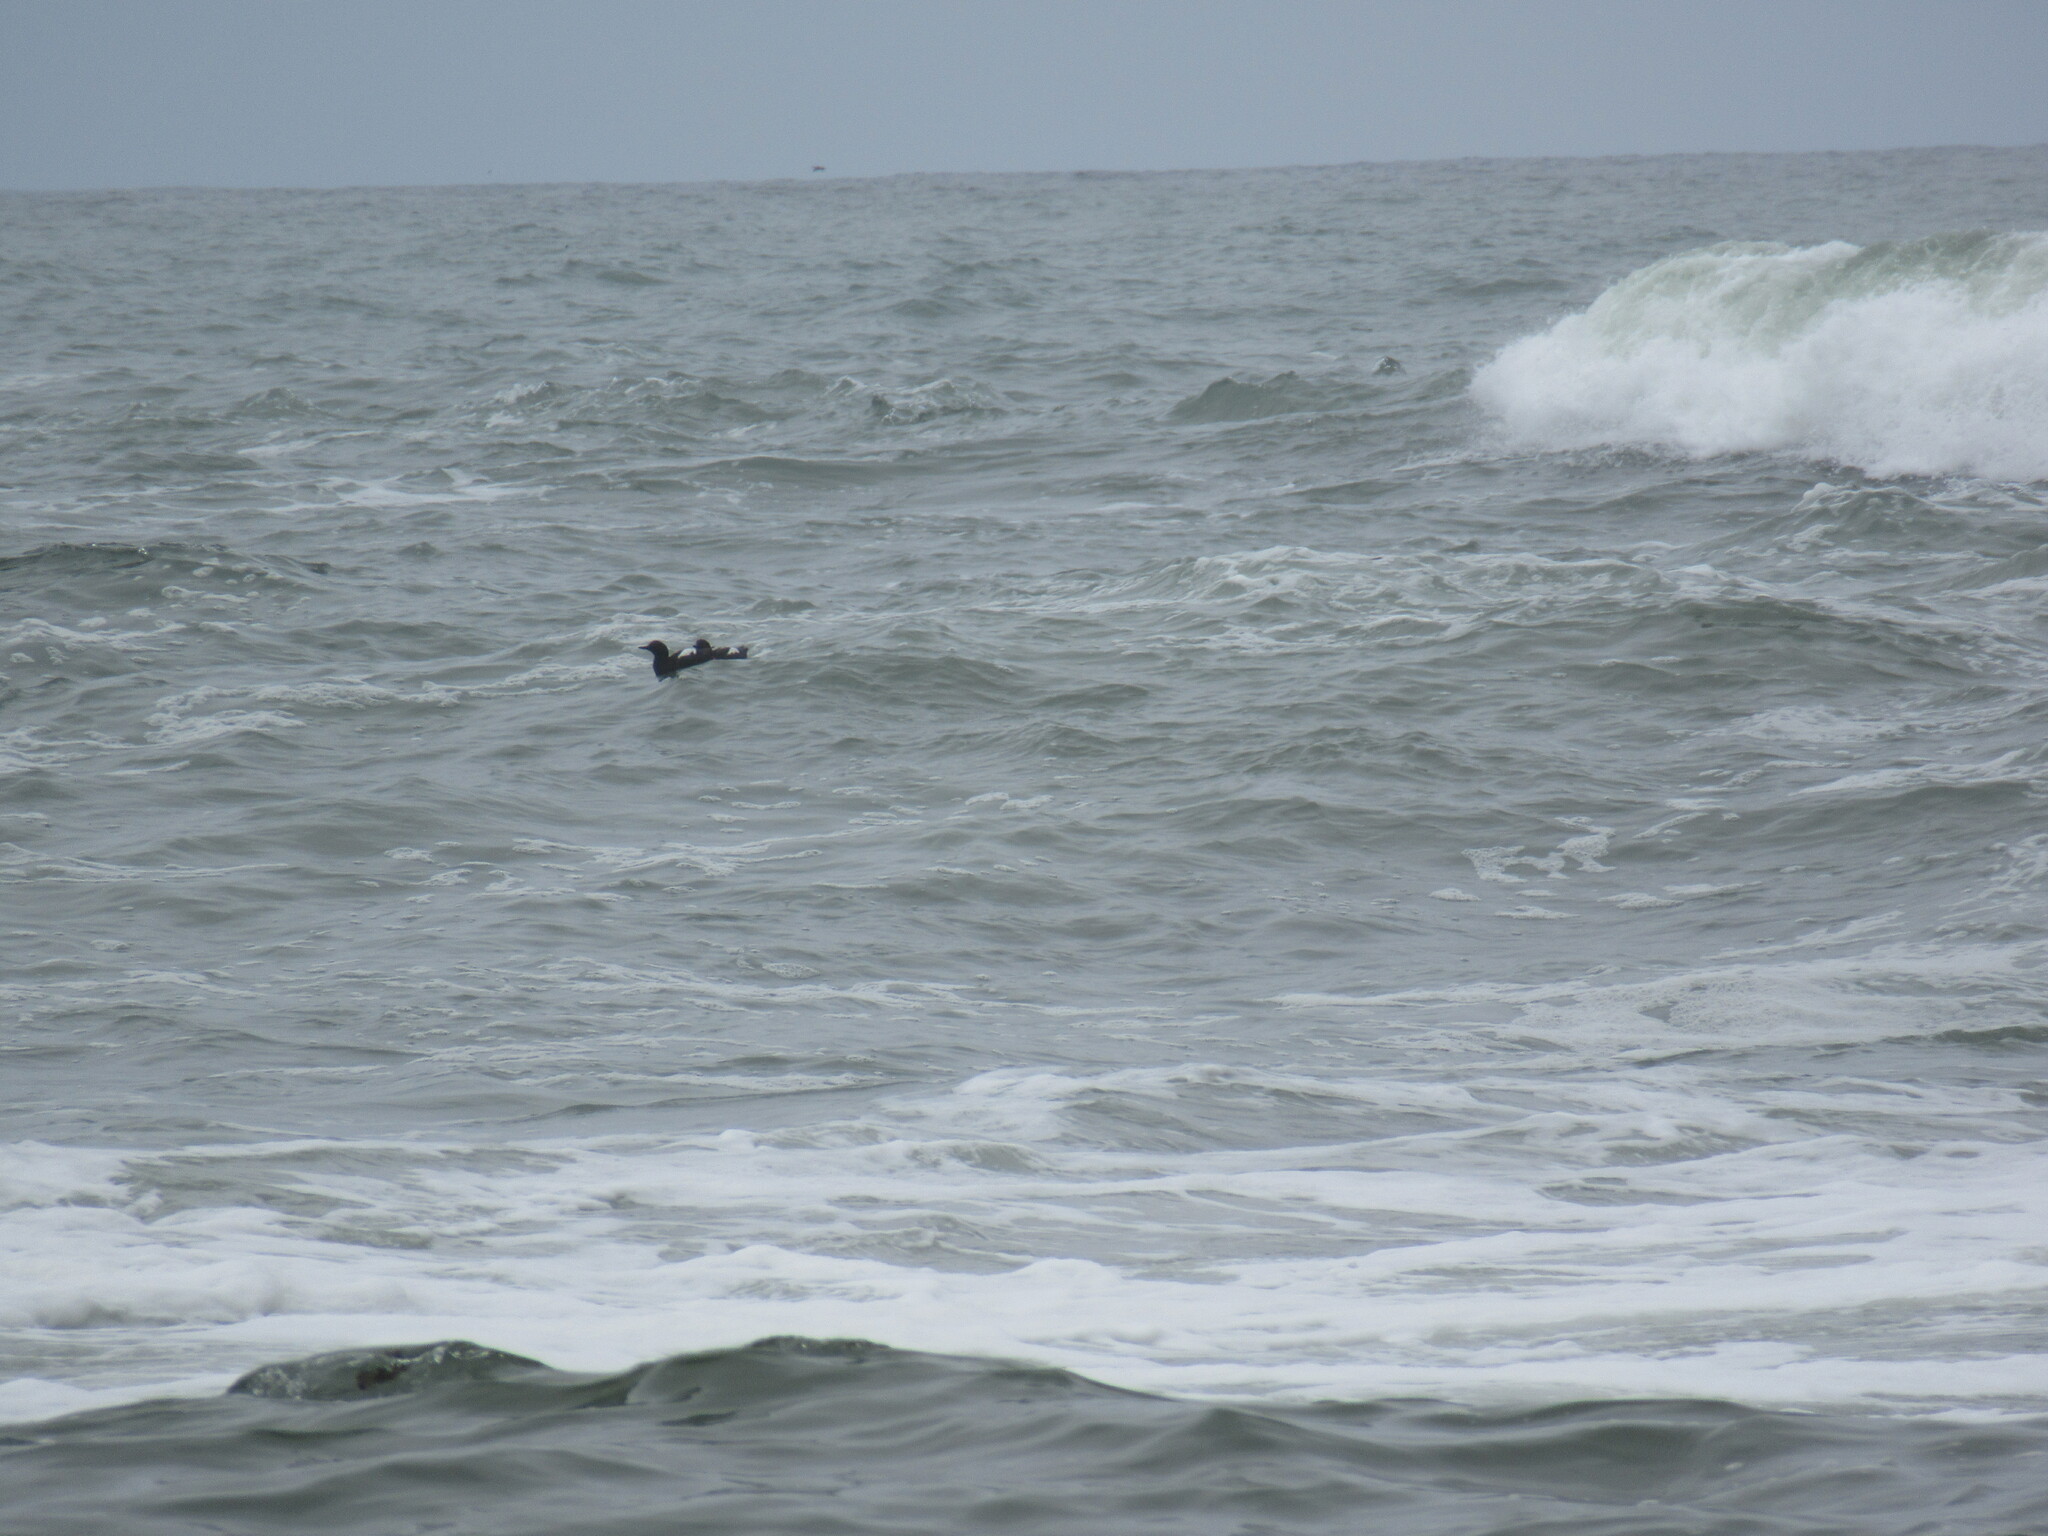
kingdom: Animalia
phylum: Chordata
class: Aves
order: Charadriiformes
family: Alcidae
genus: Cepphus
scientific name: Cepphus columba
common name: Pigeon guillemot
